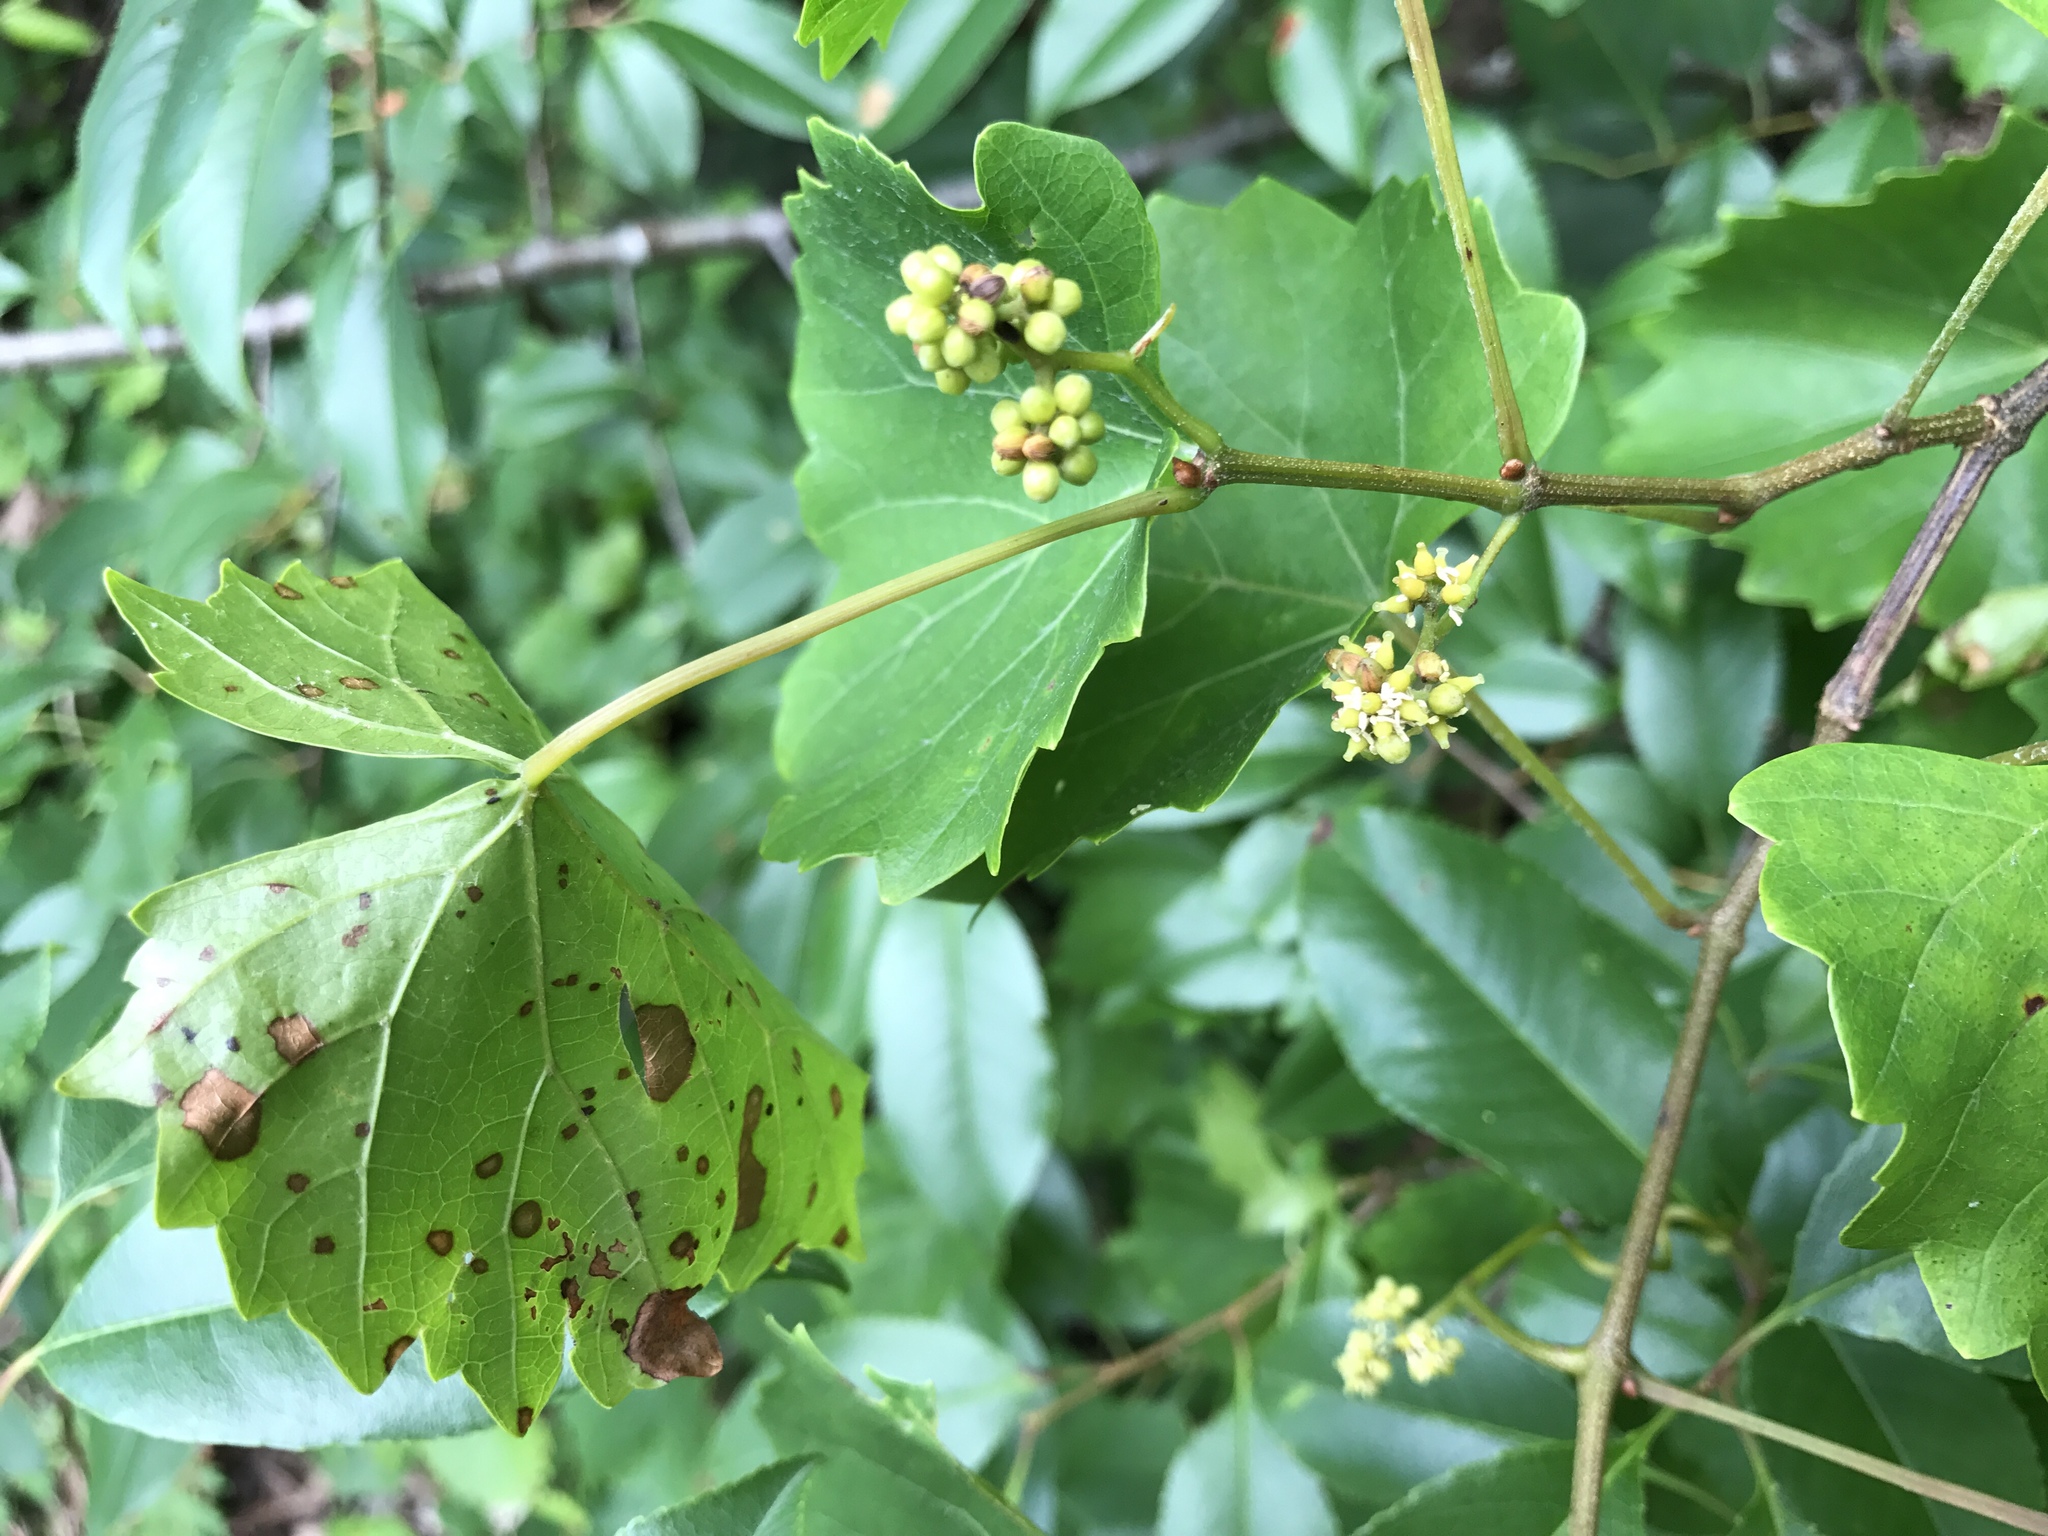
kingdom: Plantae
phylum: Tracheophyta
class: Magnoliopsida
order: Vitales
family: Vitaceae
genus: Vitis
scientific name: Vitis rotundifolia
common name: Muscadine grape
